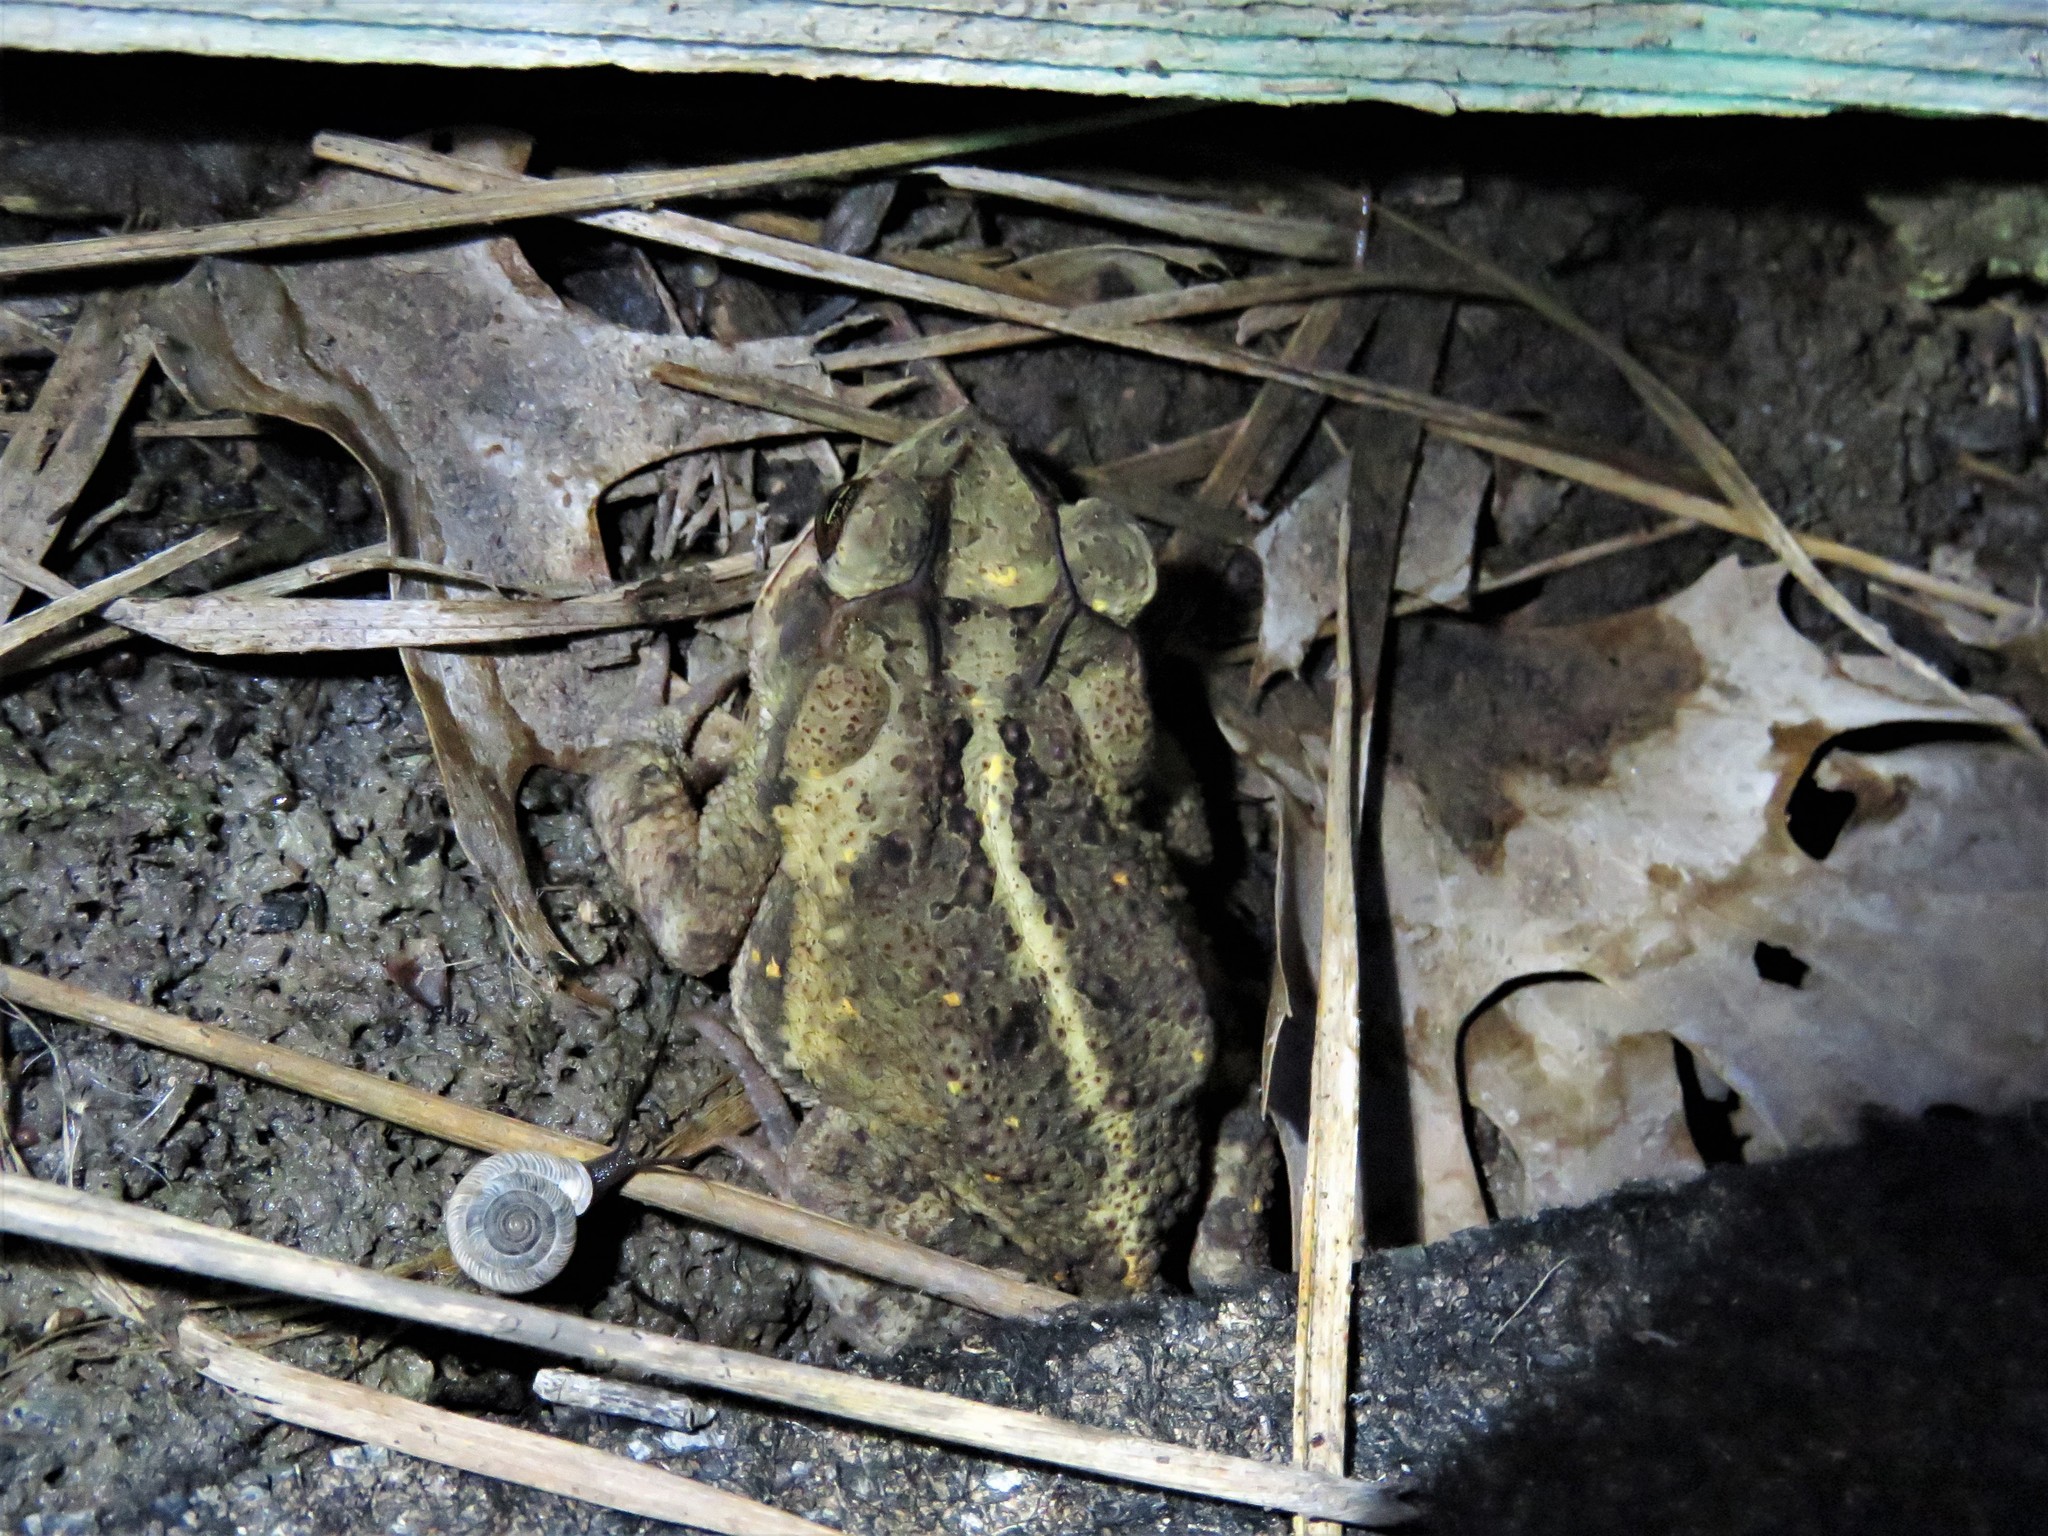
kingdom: Animalia
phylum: Chordata
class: Amphibia
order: Anura
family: Bufonidae
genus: Incilius
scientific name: Incilius nebulifer
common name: Gulf coast toad
